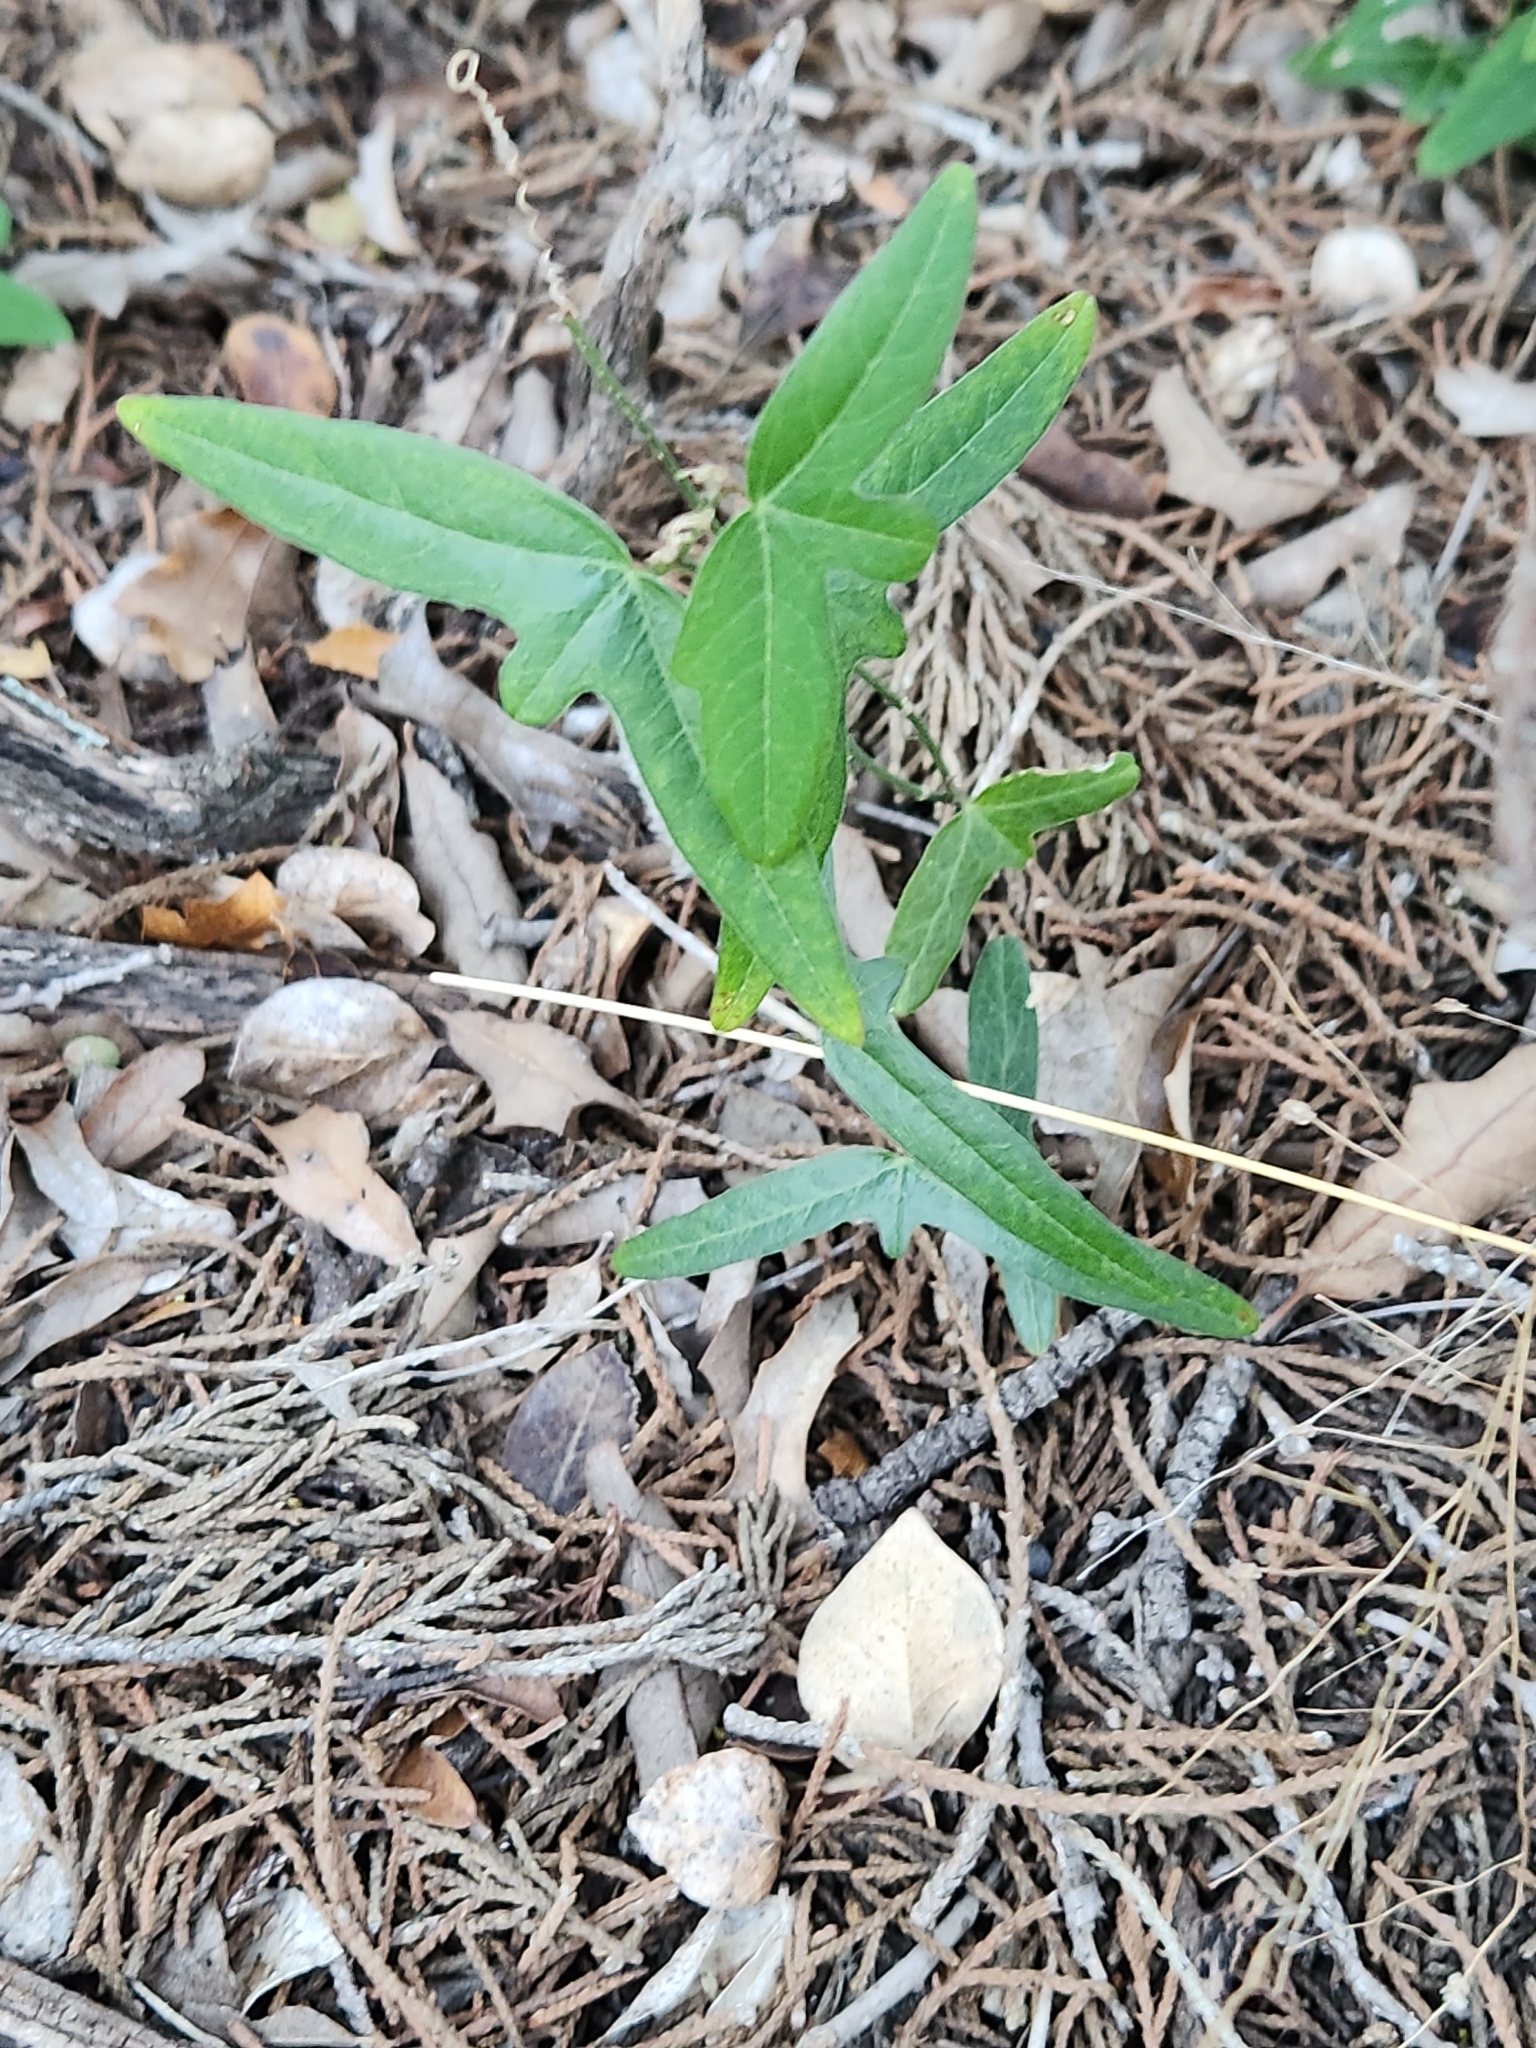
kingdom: Plantae
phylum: Tracheophyta
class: Magnoliopsida
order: Malpighiales
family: Passifloraceae
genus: Passiflora
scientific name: Passiflora tenuiloba
